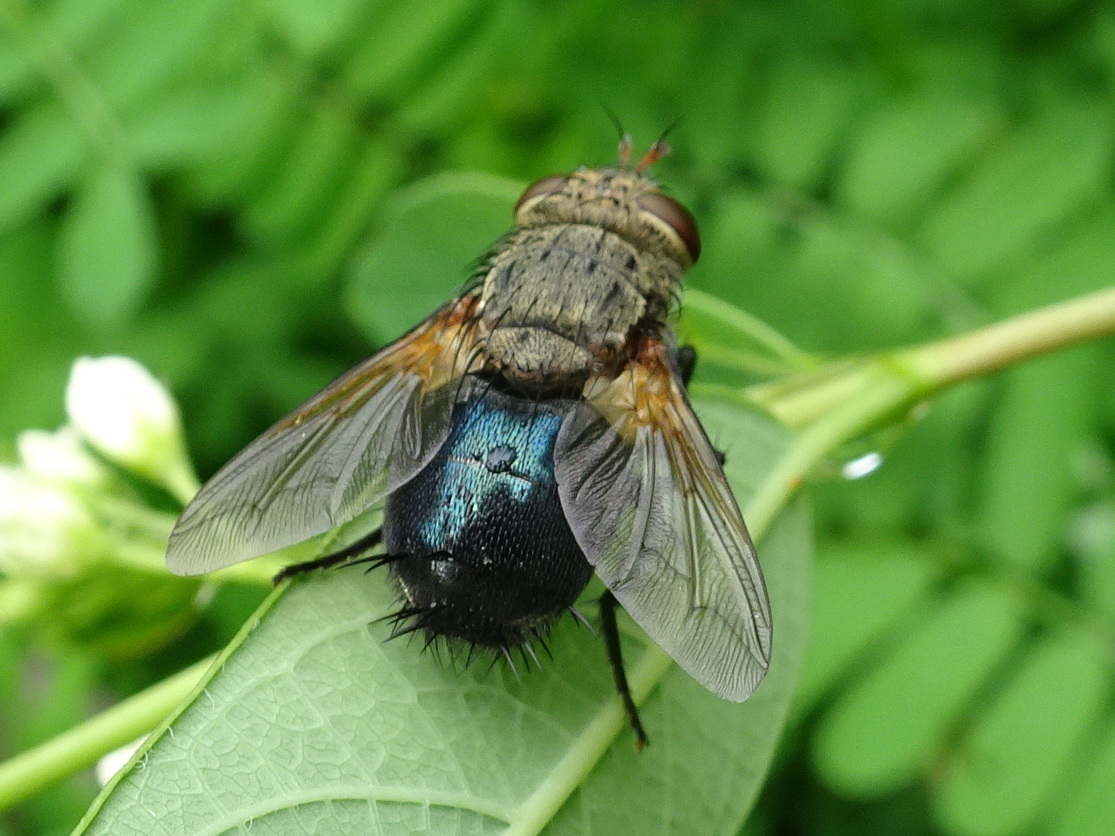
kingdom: Animalia
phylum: Arthropoda
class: Insecta
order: Diptera
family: Tachinidae
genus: Archytas
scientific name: Archytas apicifer
